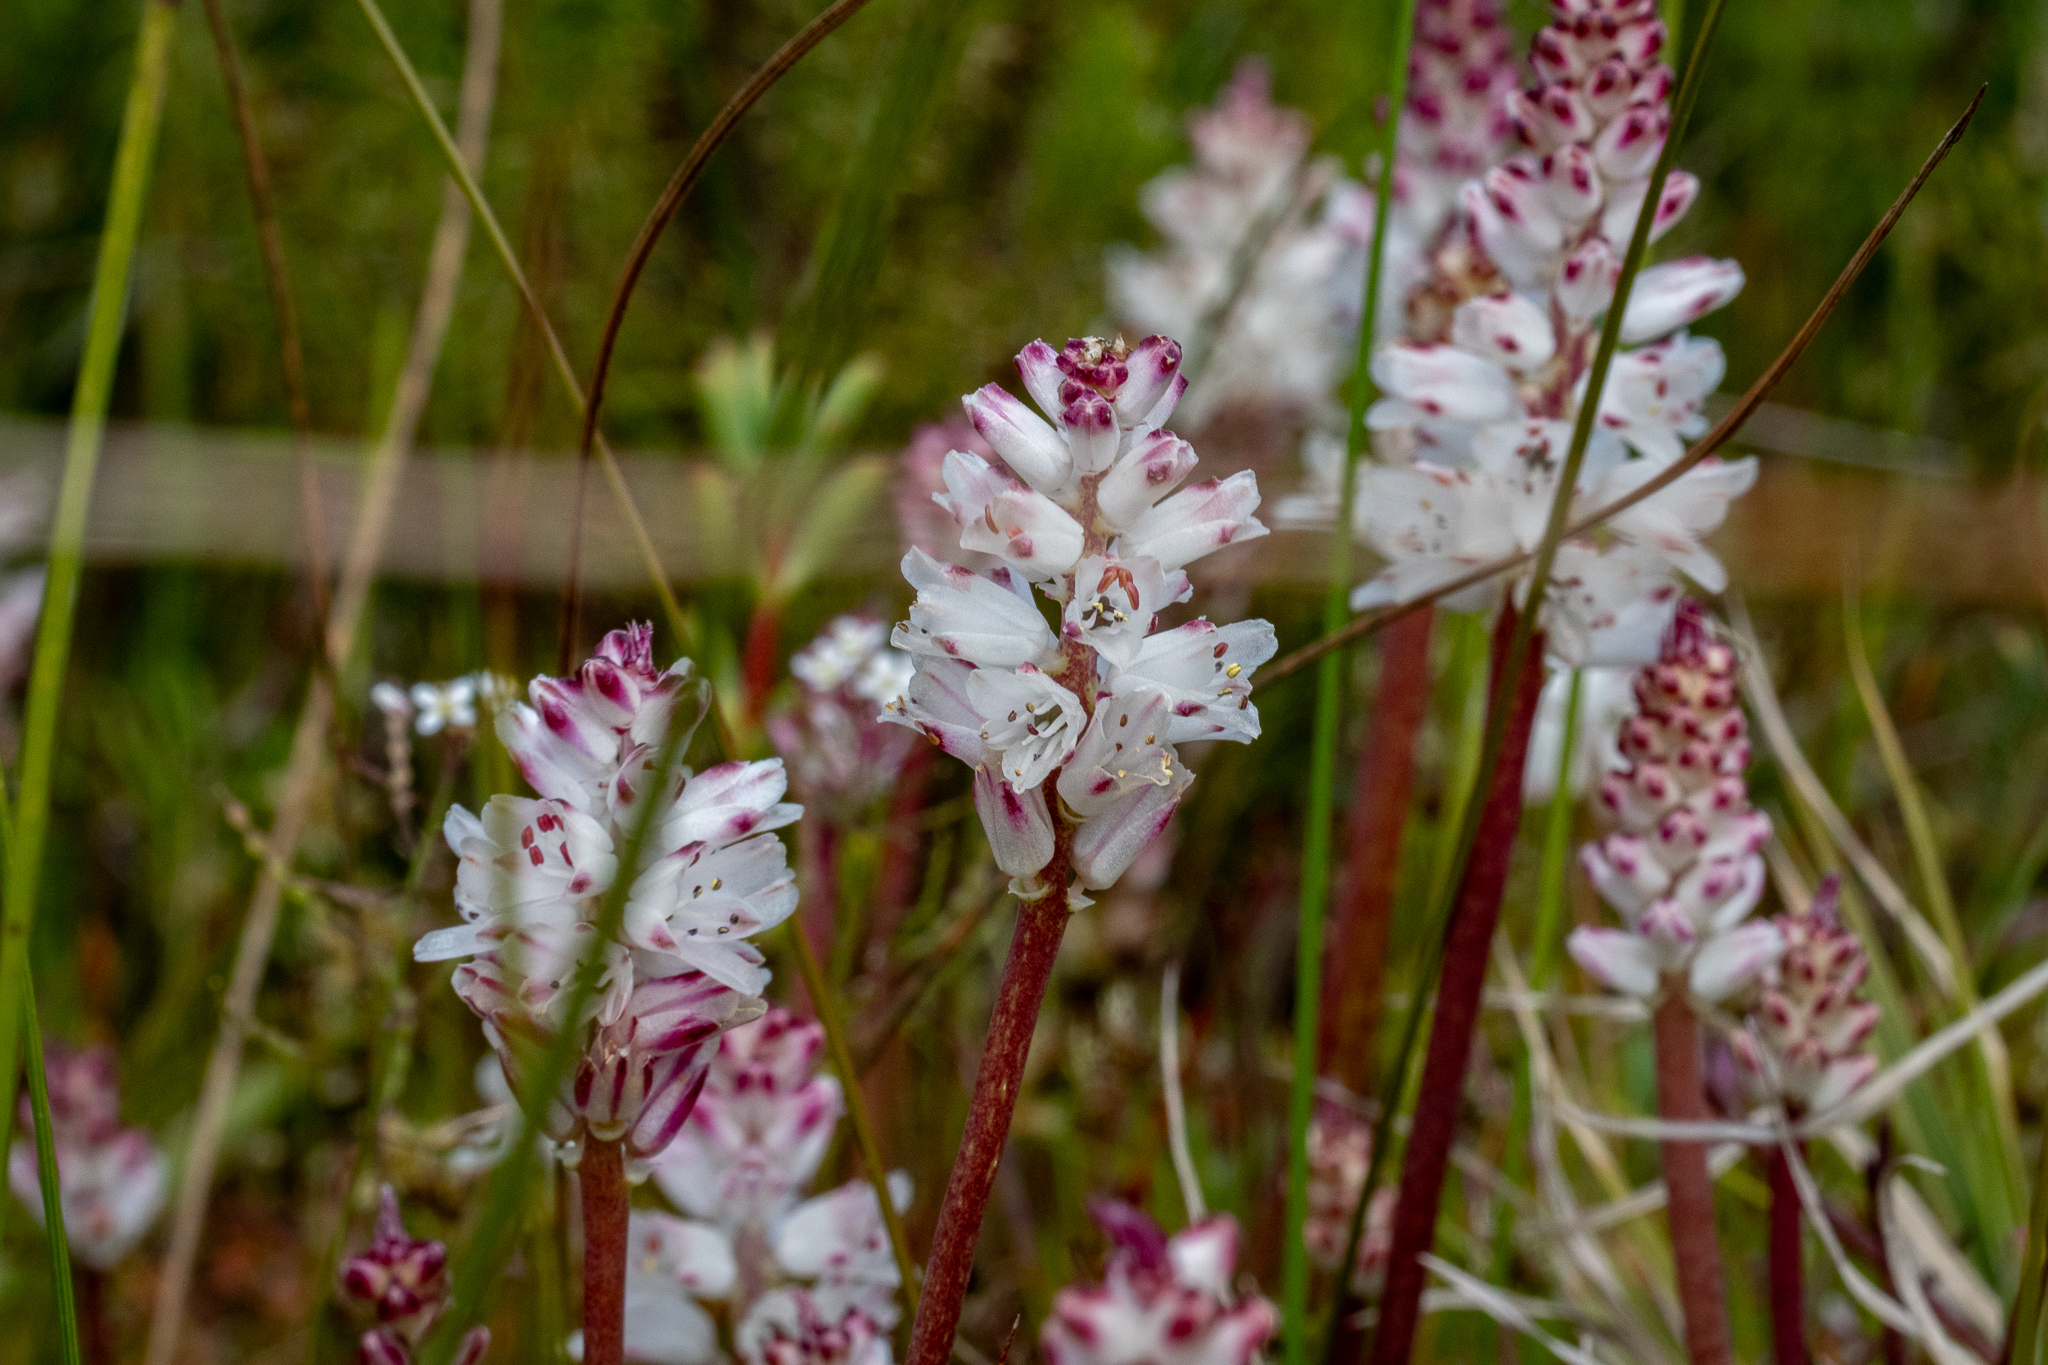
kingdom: Plantae
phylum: Tracheophyta
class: Liliopsida
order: Asparagales
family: Asparagaceae
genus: Lachenalia
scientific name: Lachenalia contaminata
